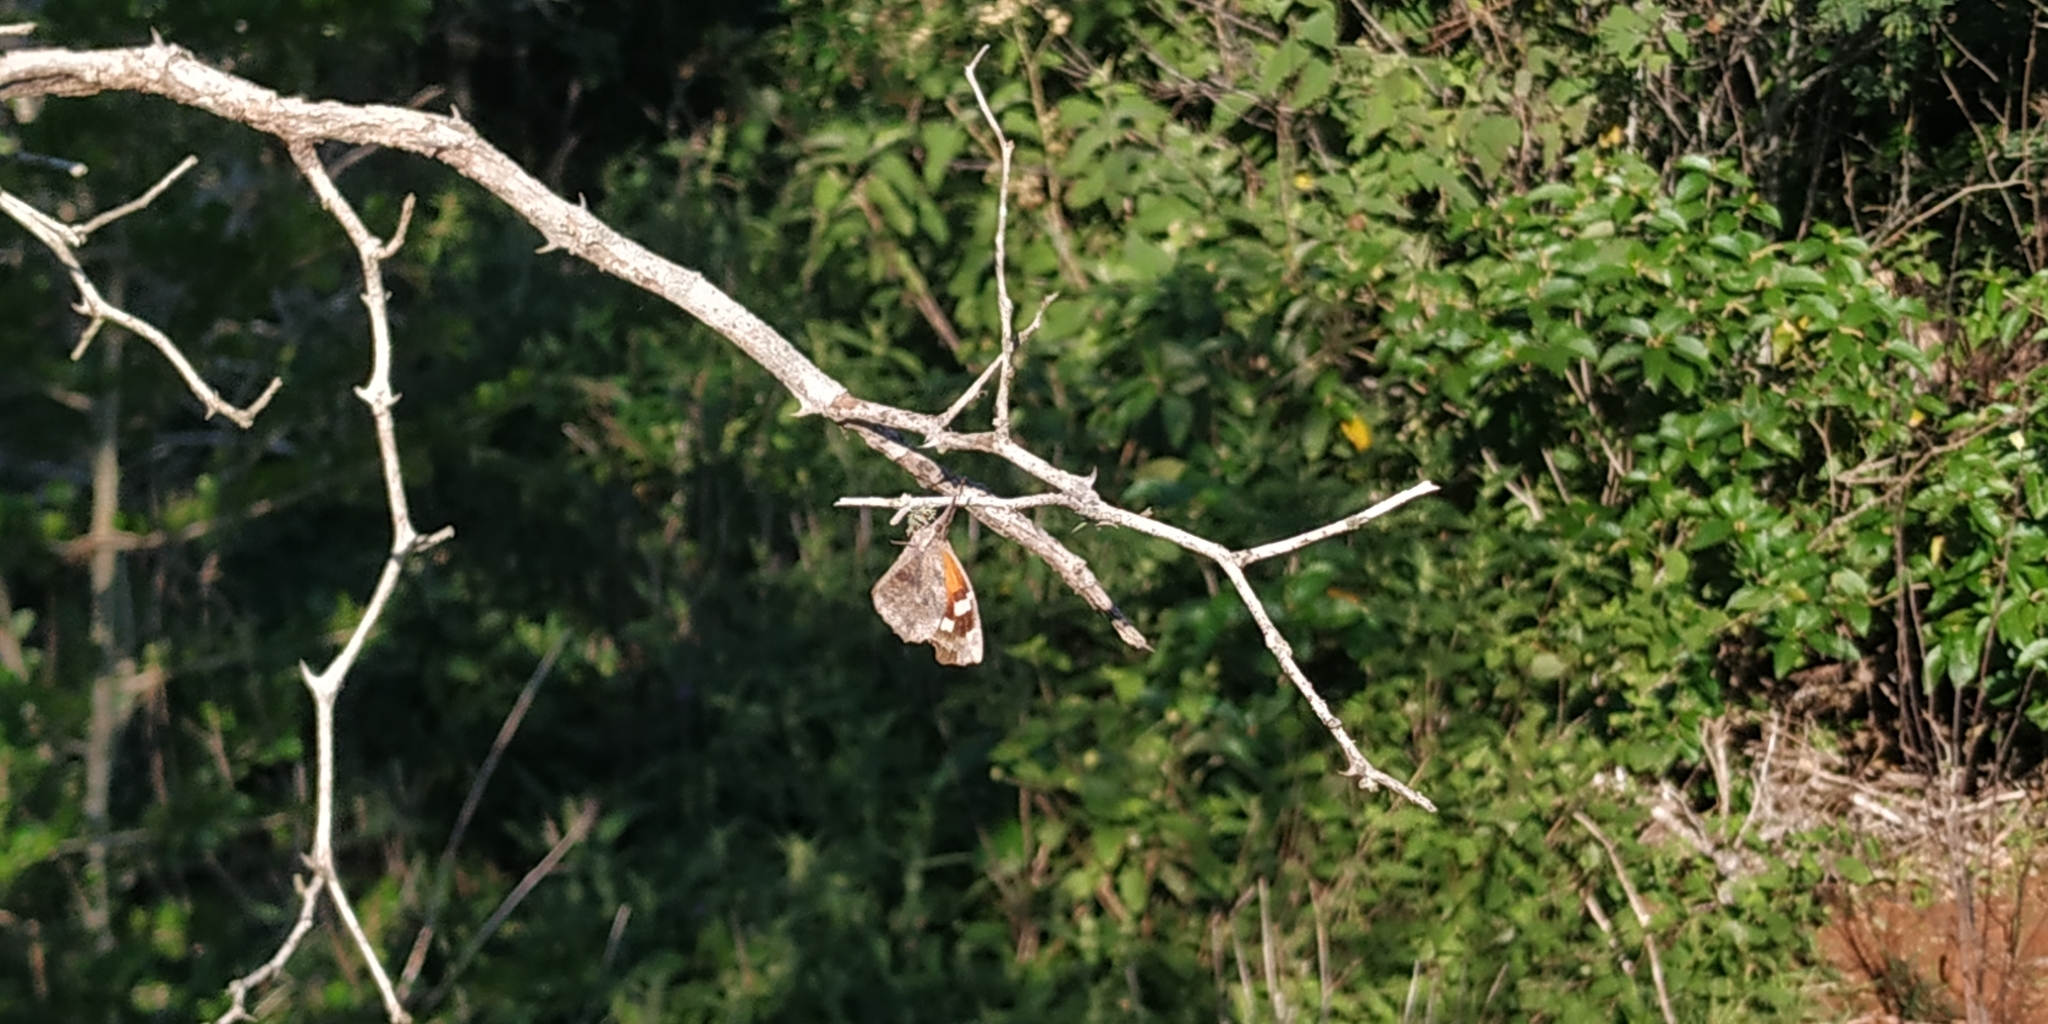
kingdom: Animalia
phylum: Arthropoda
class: Insecta
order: Lepidoptera
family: Nymphalidae
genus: Libytheana
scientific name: Libytheana carinenta
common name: American snout
